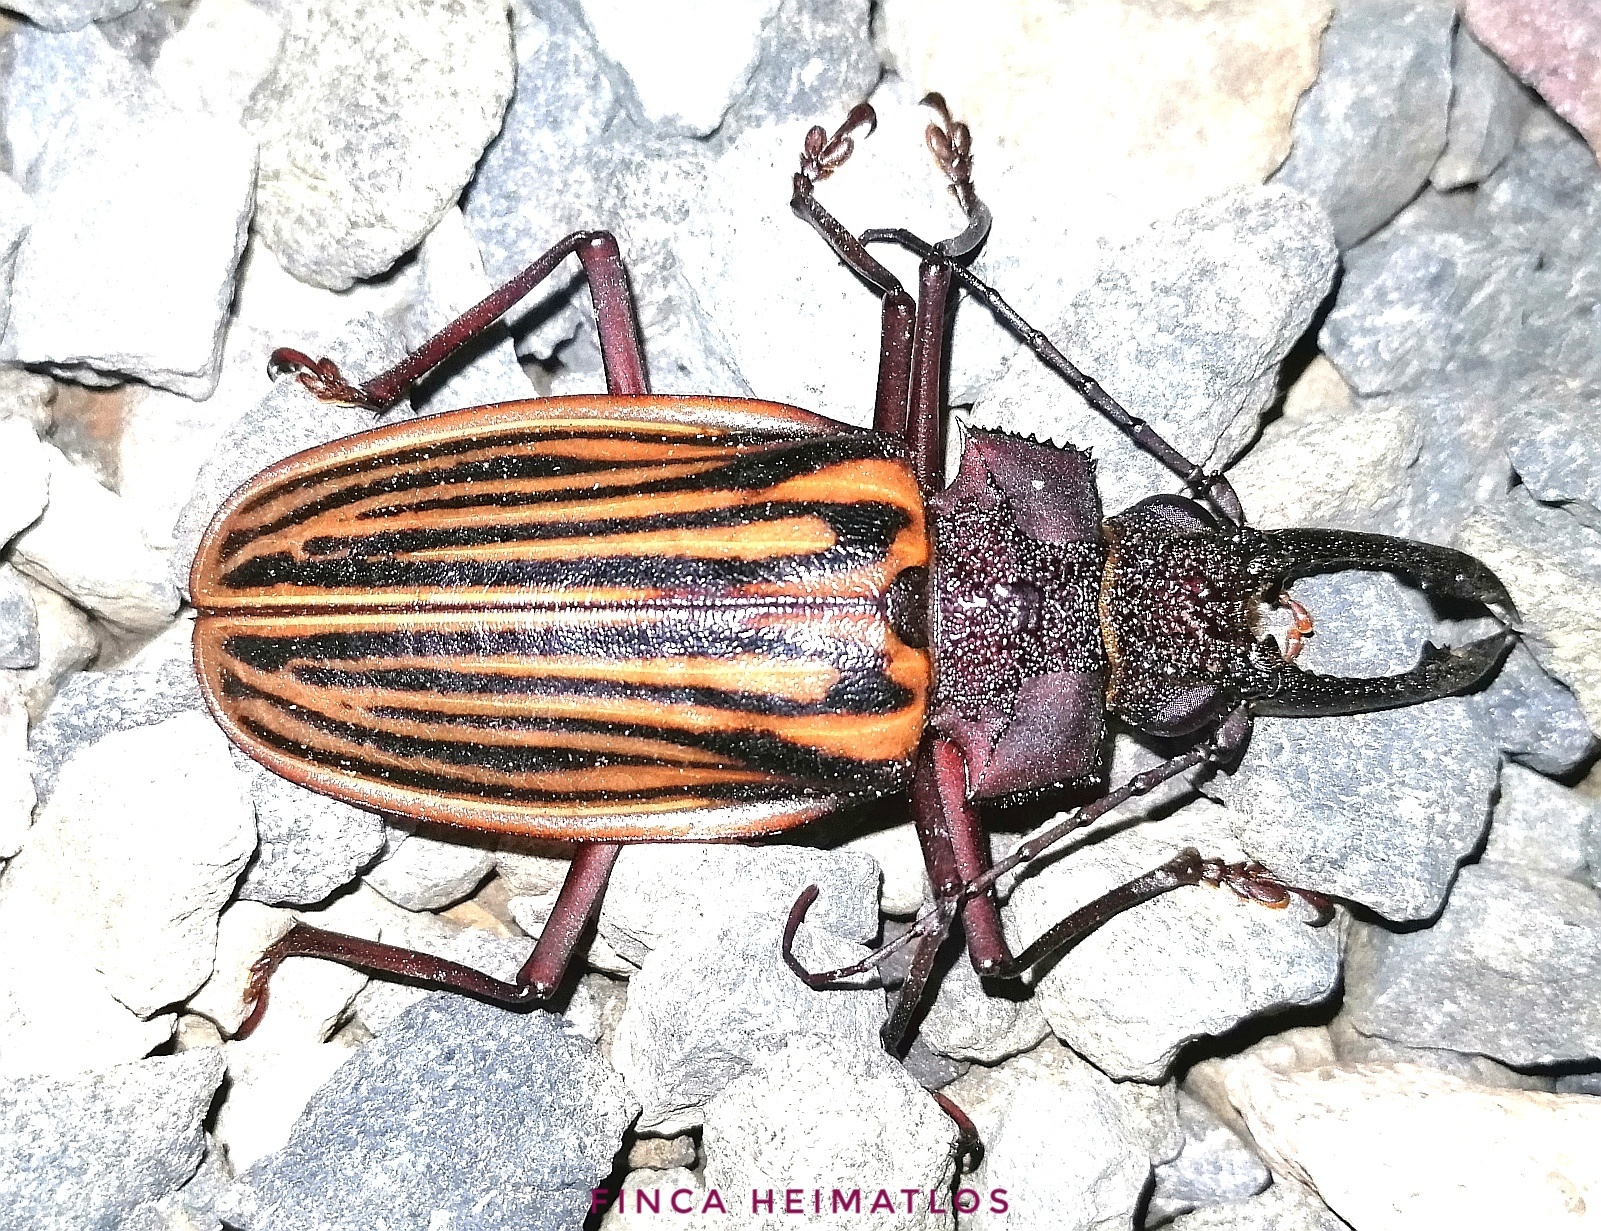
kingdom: Animalia
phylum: Arthropoda
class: Insecta
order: Coleoptera
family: Cerambycidae
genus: Macrodontia
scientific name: Macrodontia batesi
